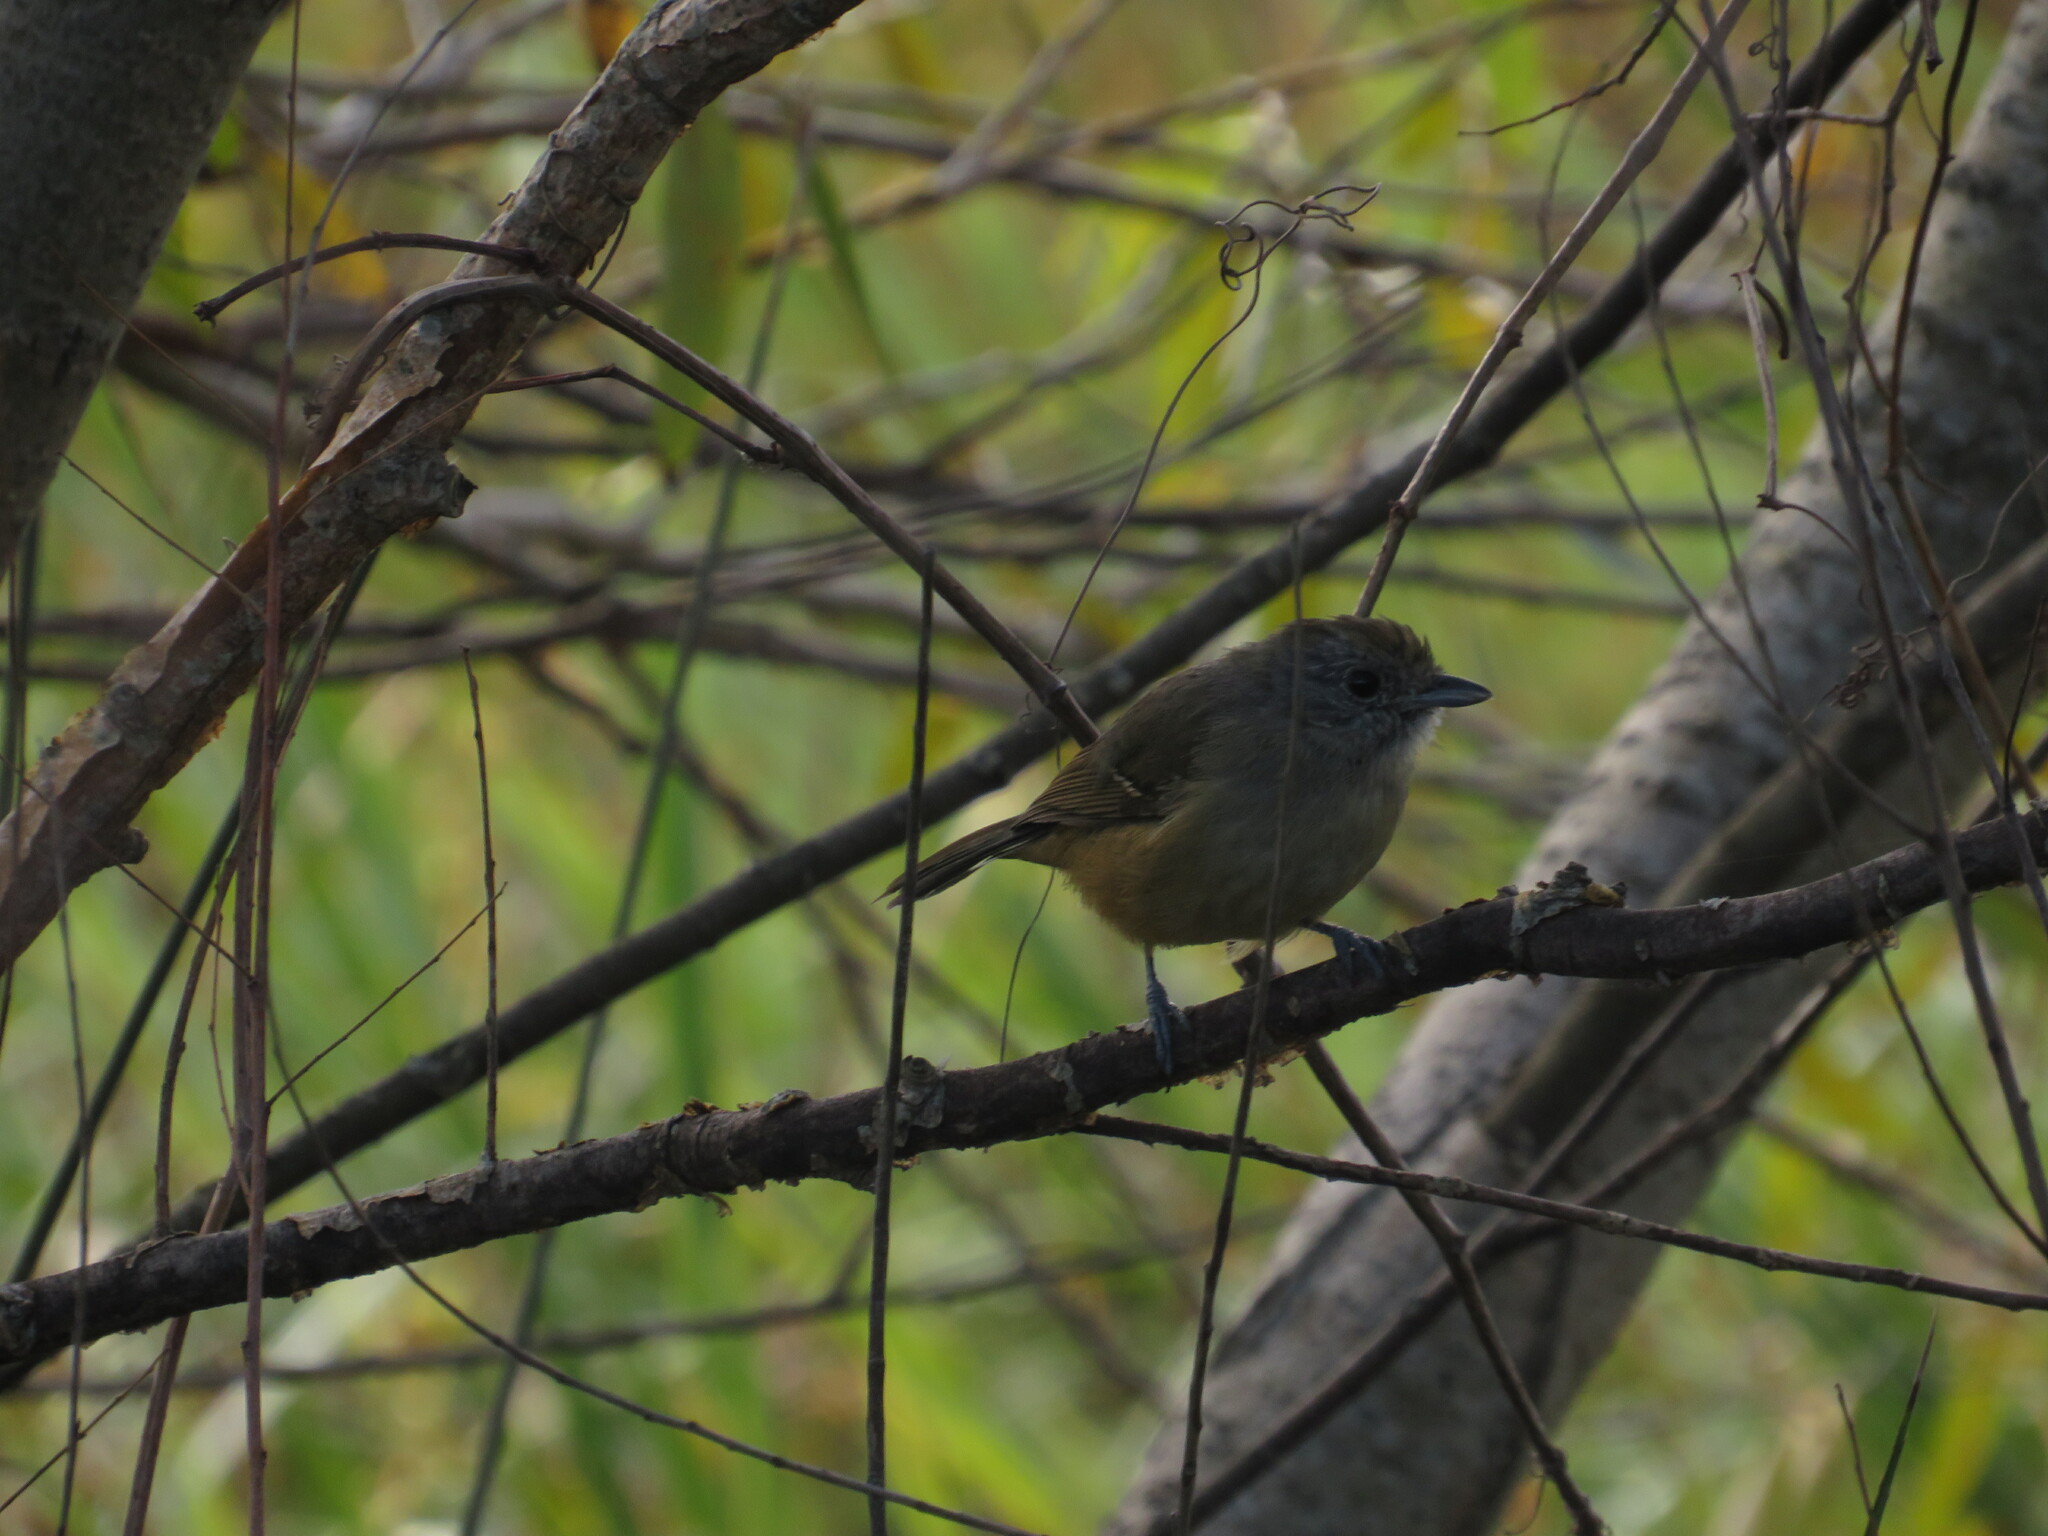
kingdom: Animalia
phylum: Chordata
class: Aves
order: Passeriformes
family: Thamnophilidae
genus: Thamnophilus
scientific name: Thamnophilus caerulescens
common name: Variable antshrike
